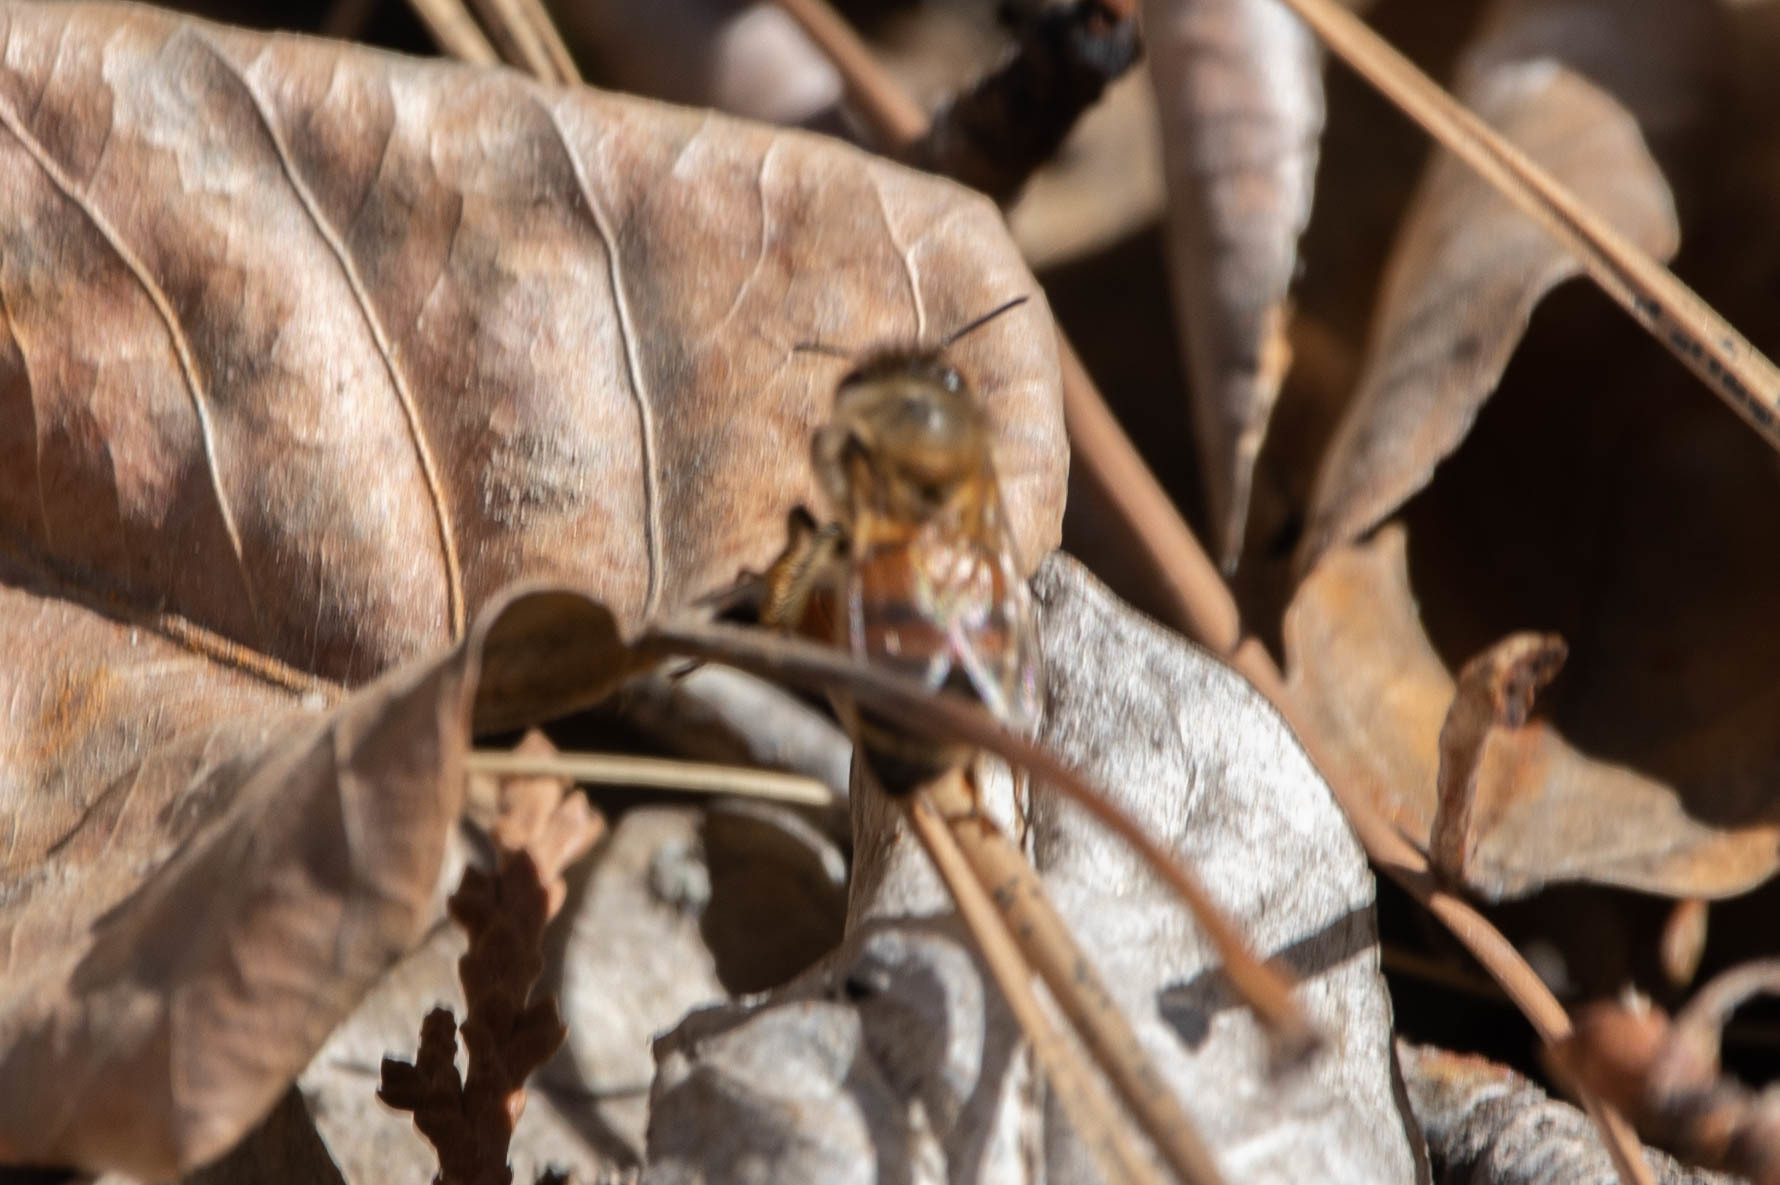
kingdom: Animalia
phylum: Arthropoda
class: Insecta
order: Hymenoptera
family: Apidae
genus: Apis
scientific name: Apis mellifera
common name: Honey bee
